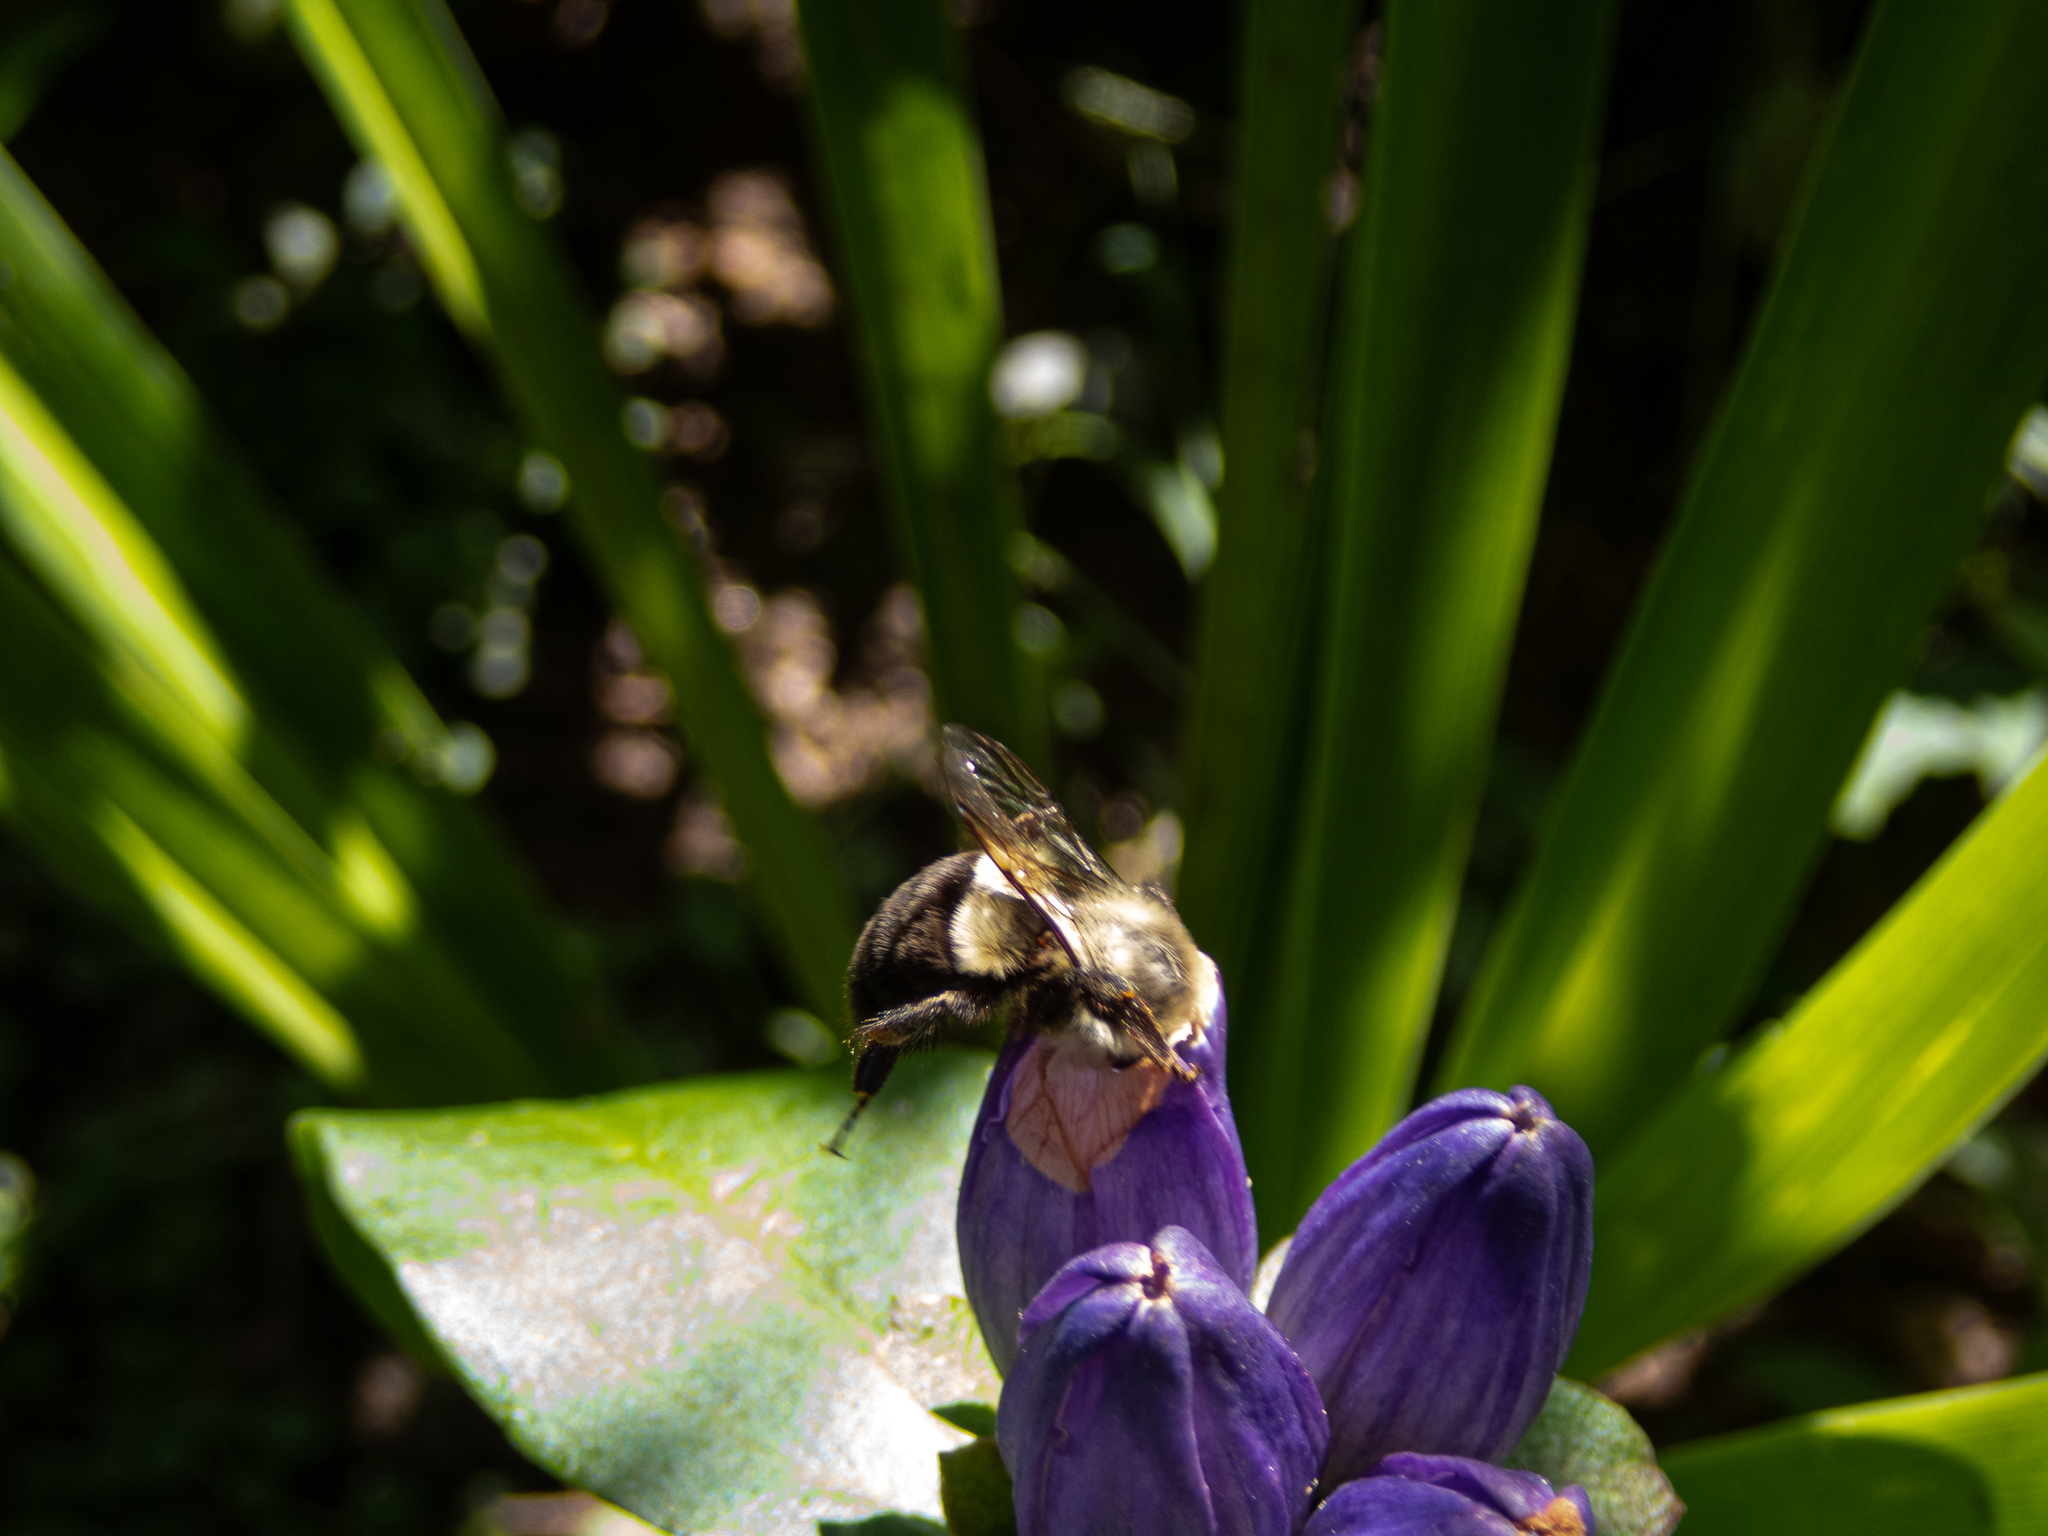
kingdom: Animalia
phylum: Arthropoda
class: Insecta
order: Hymenoptera
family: Apidae
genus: Bombus
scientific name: Bombus impatiens
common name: Common eastern bumble bee
